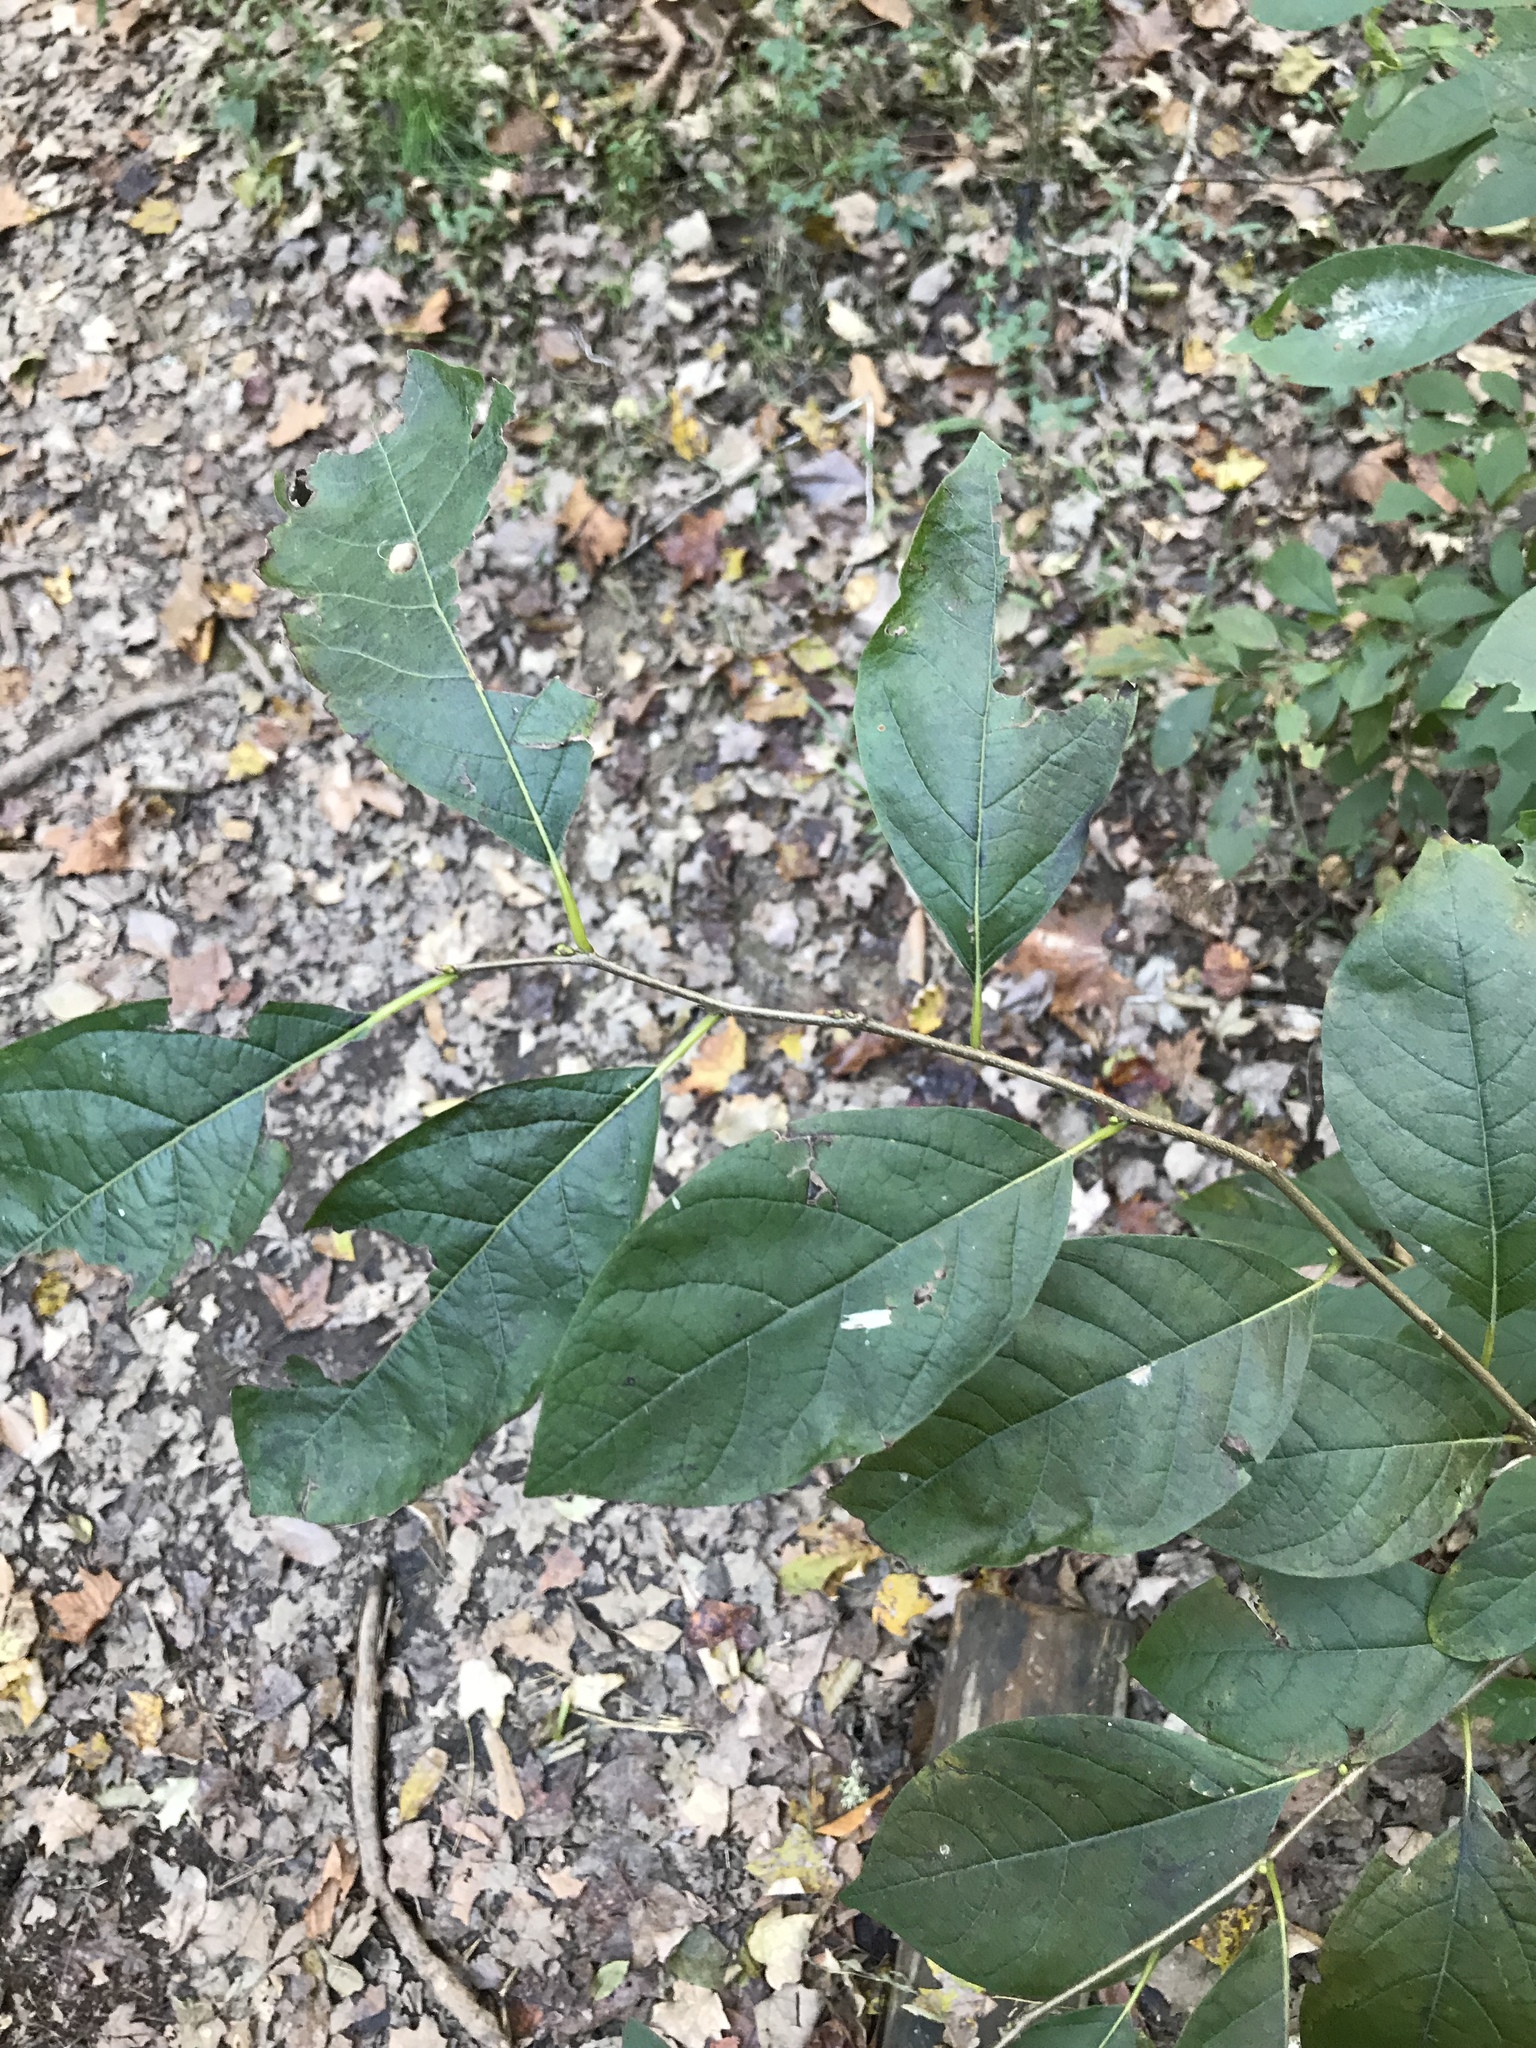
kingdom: Plantae
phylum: Tracheophyta
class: Magnoliopsida
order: Laurales
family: Lauraceae
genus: Lindera
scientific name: Lindera benzoin
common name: Spicebush
